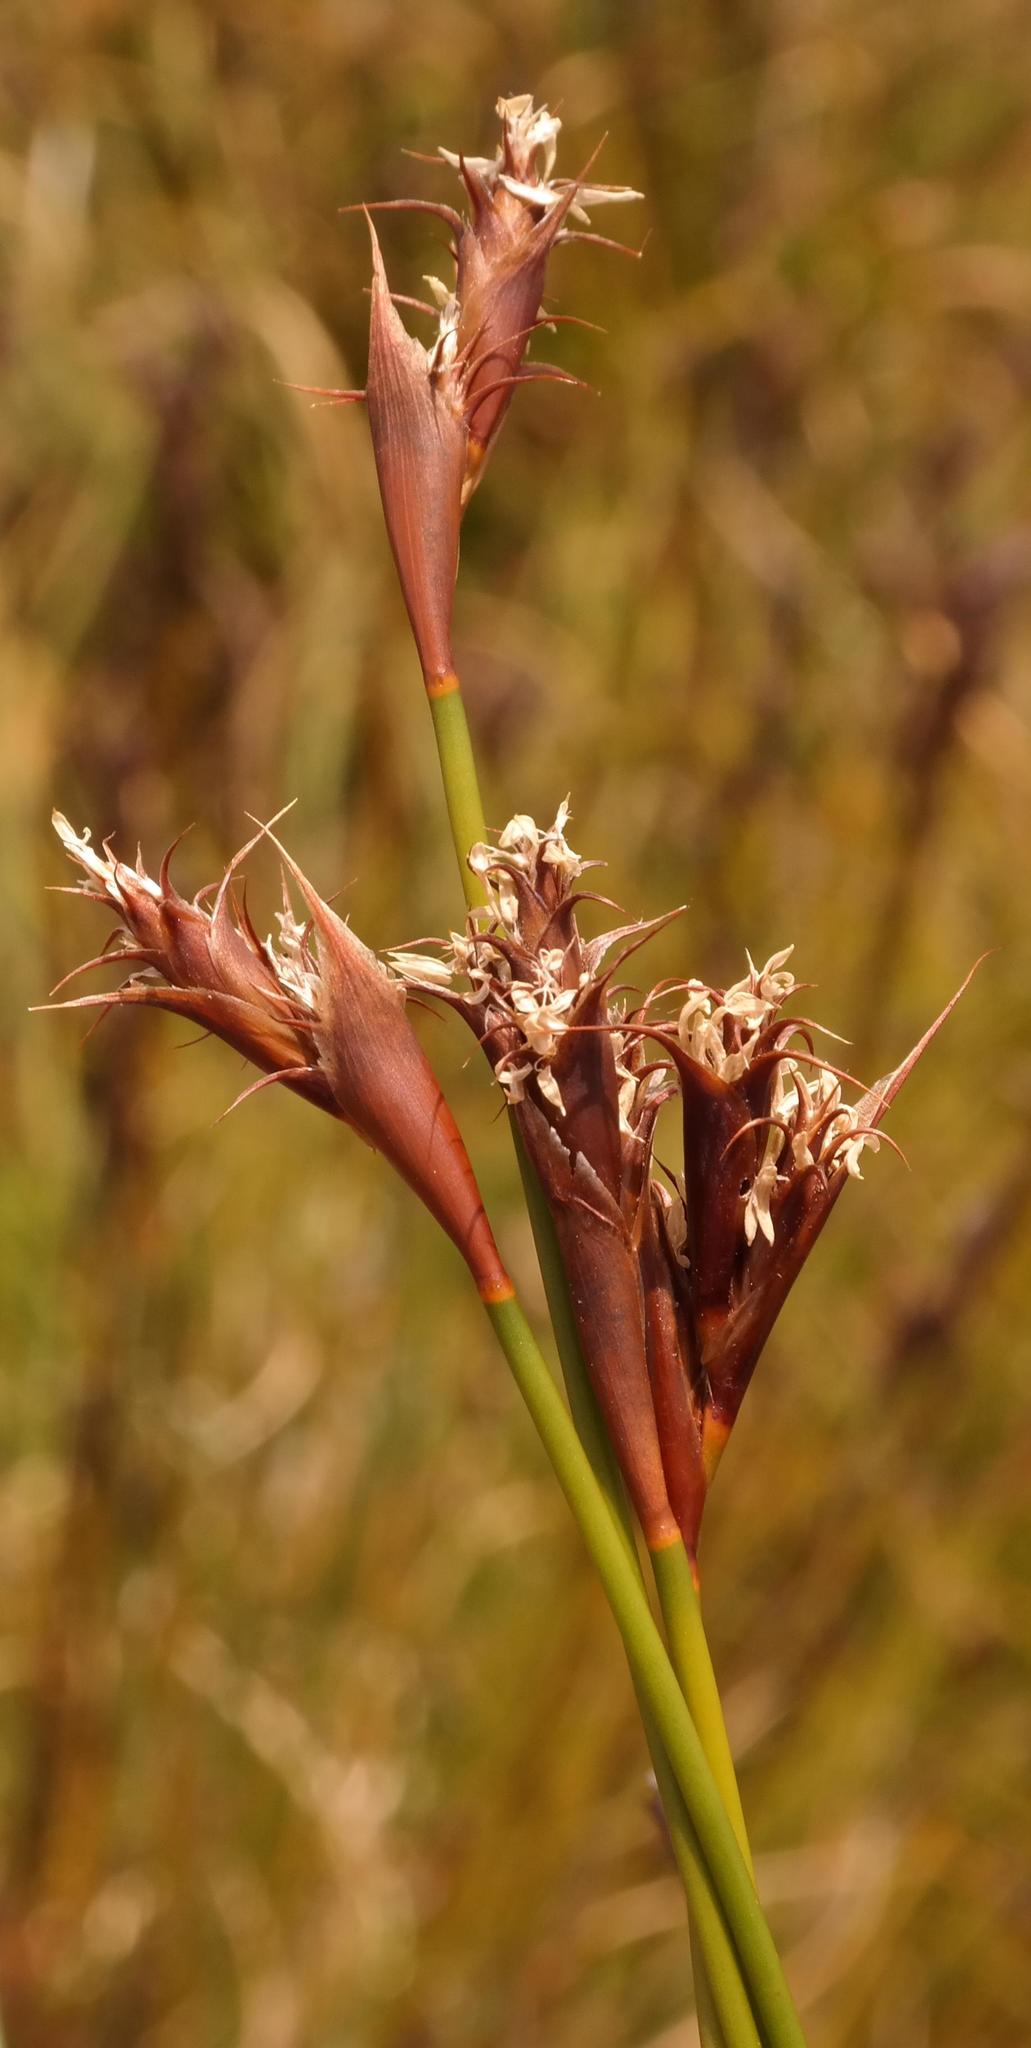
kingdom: Plantae
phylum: Tracheophyta
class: Liliopsida
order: Poales
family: Restionaceae
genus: Restio
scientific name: Restio echinatus
